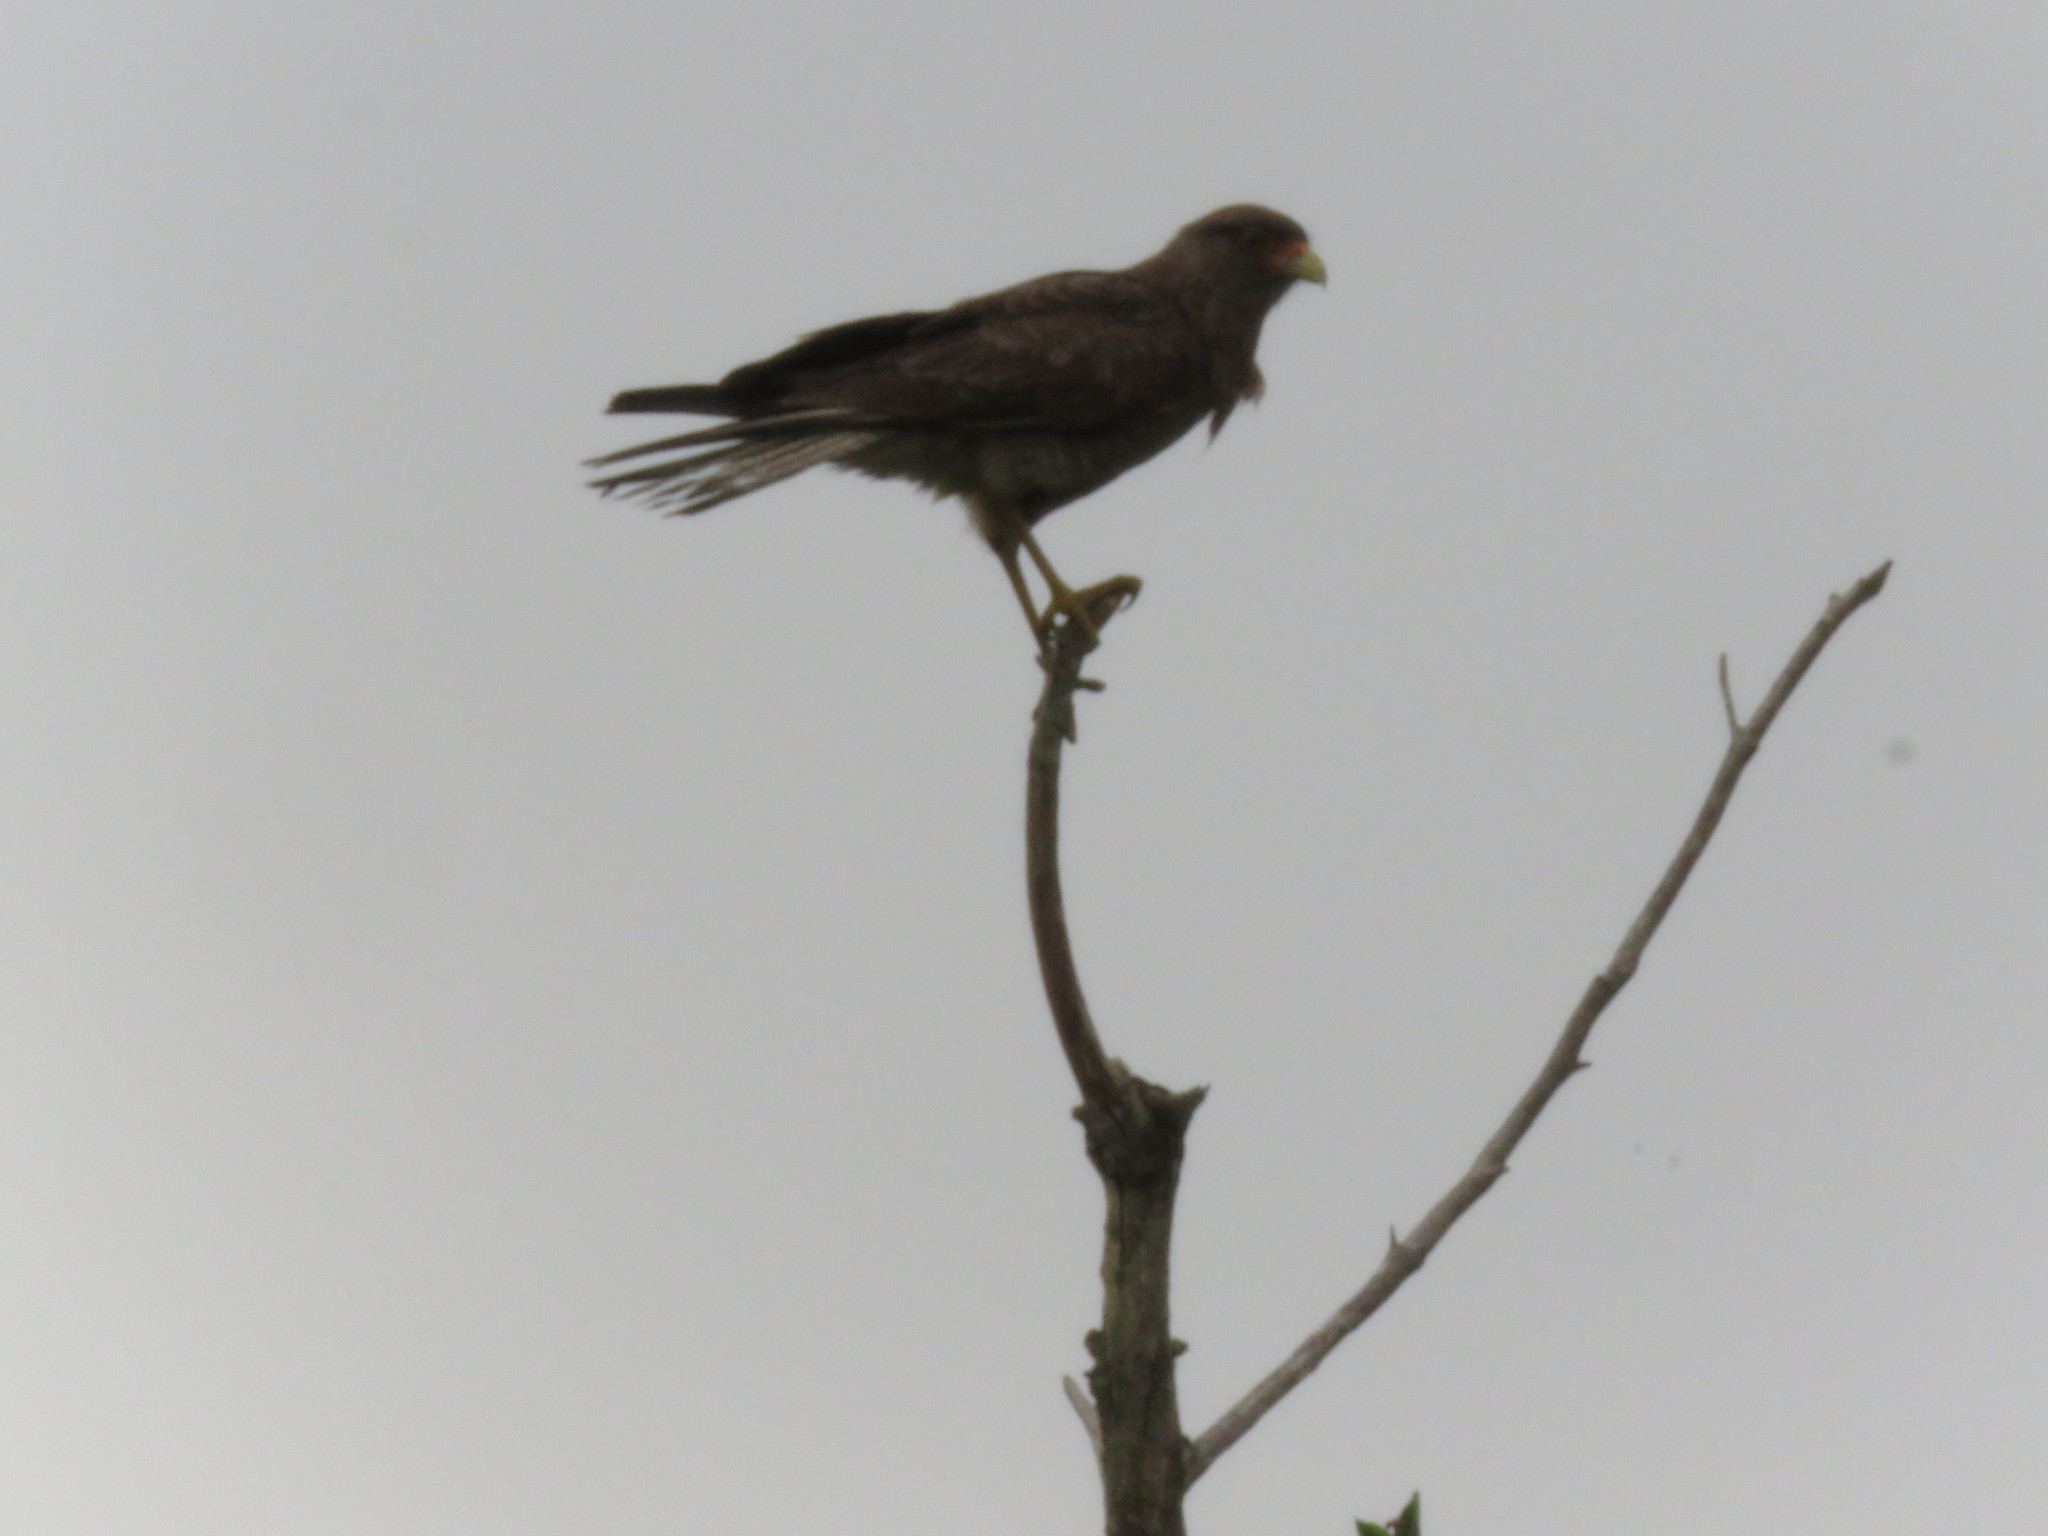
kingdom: Animalia
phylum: Chordata
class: Aves
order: Falconiformes
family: Falconidae
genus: Daptrius
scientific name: Daptrius
